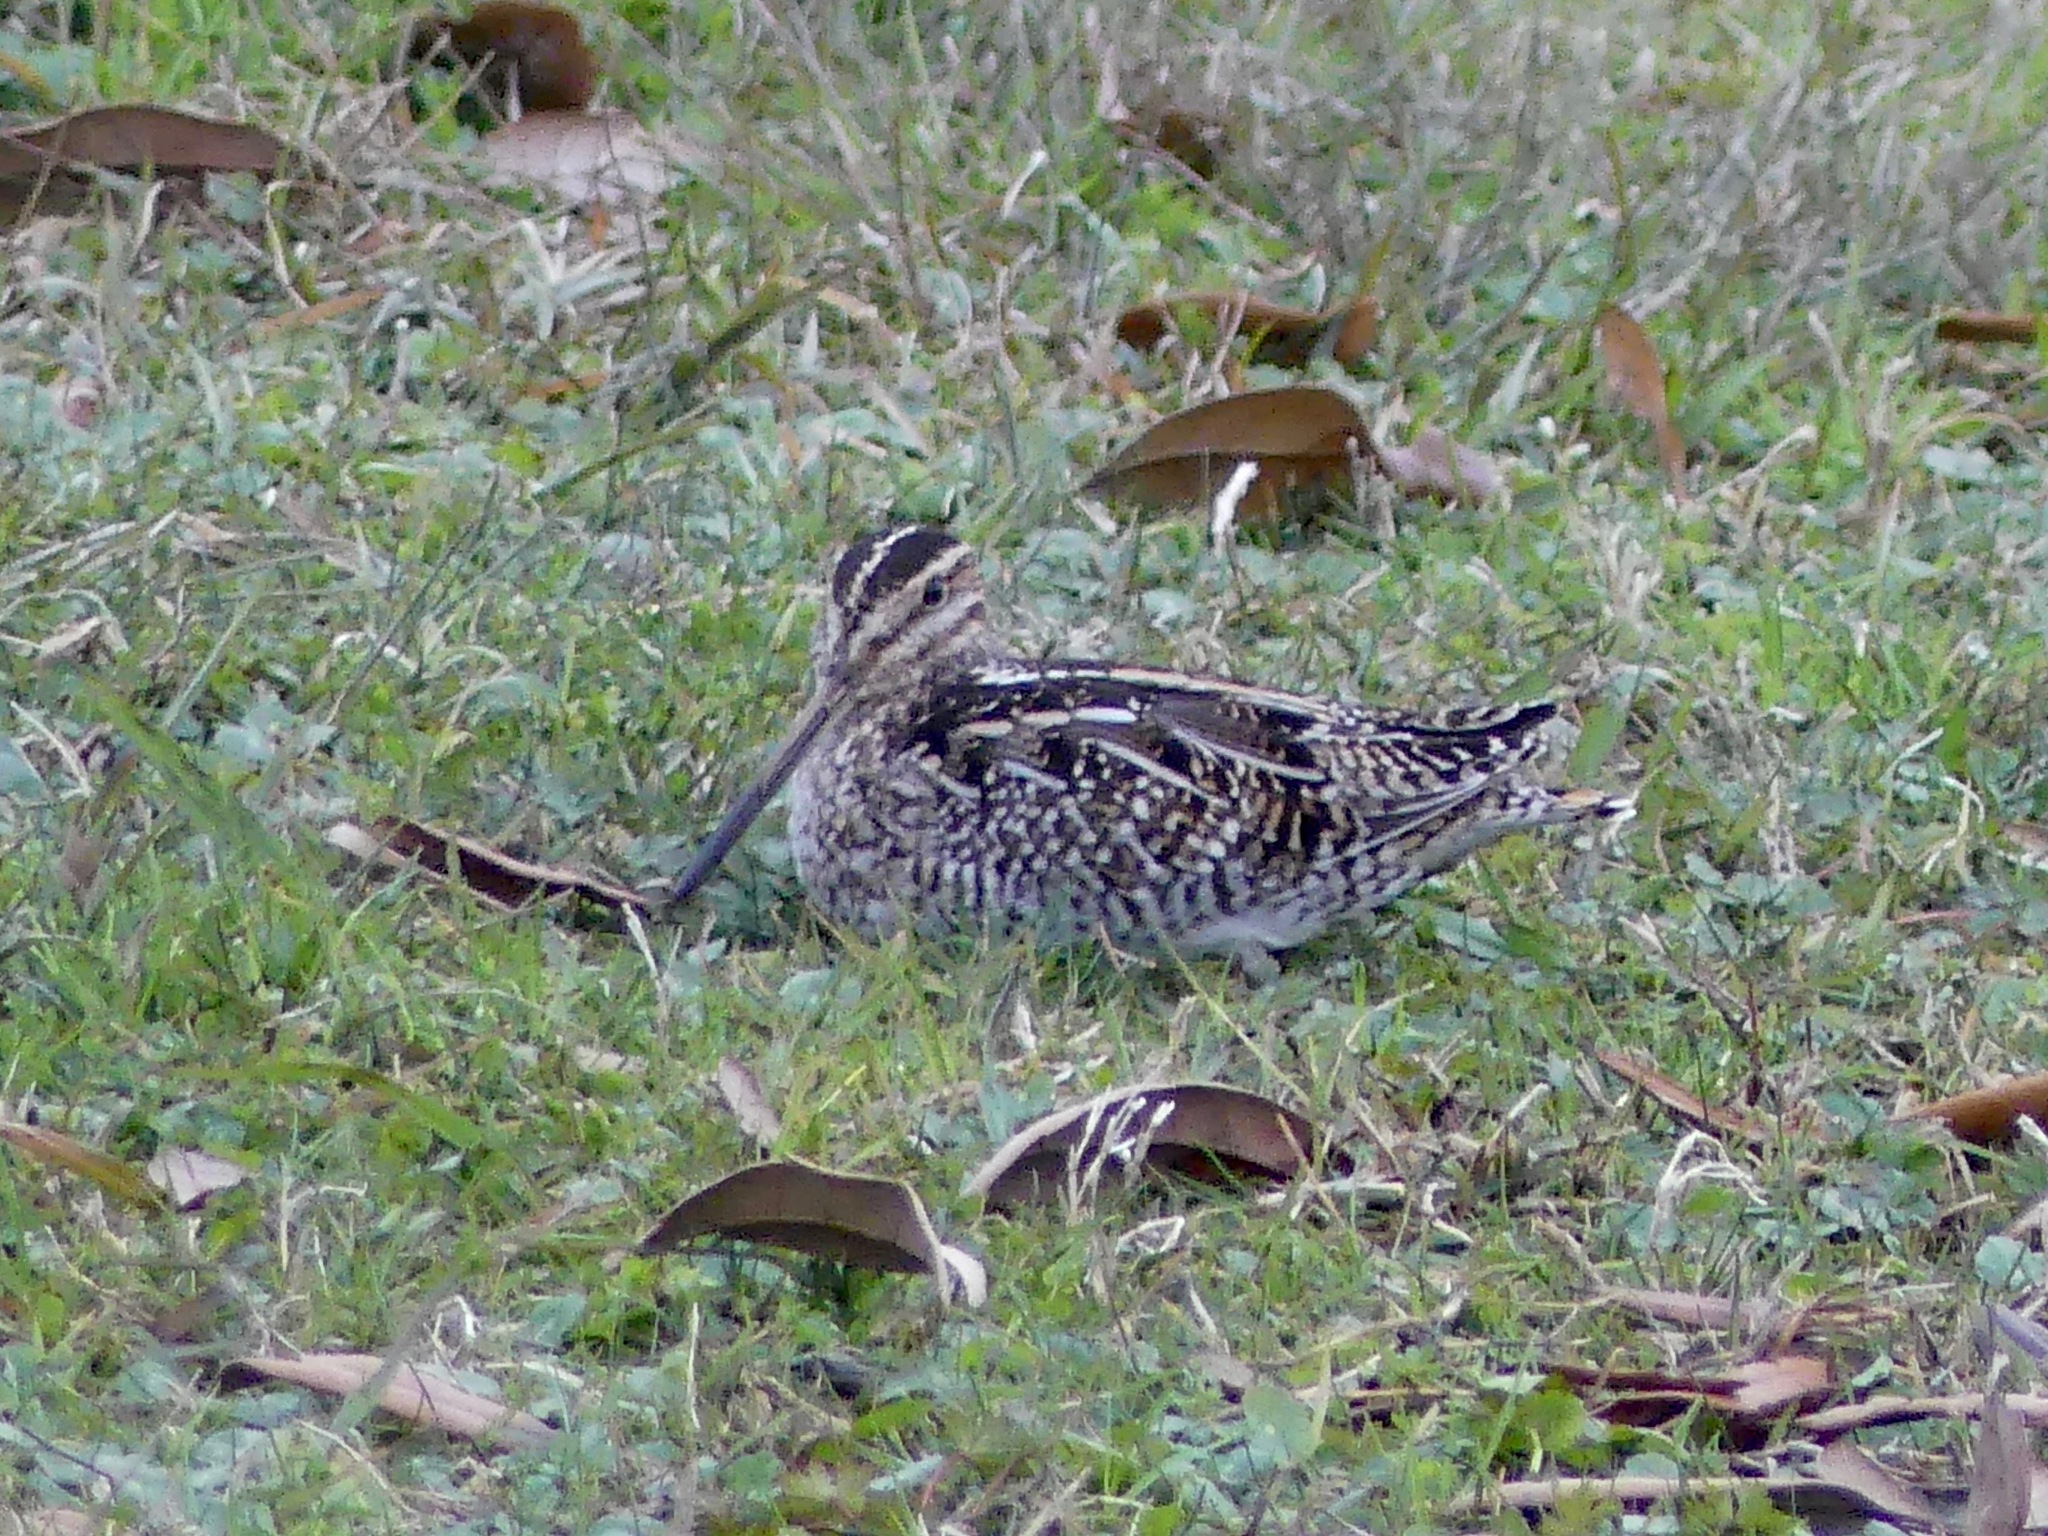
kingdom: Animalia
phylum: Chordata
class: Aves
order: Charadriiformes
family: Scolopacidae
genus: Gallinago
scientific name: Gallinago delicata
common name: Wilson's snipe
